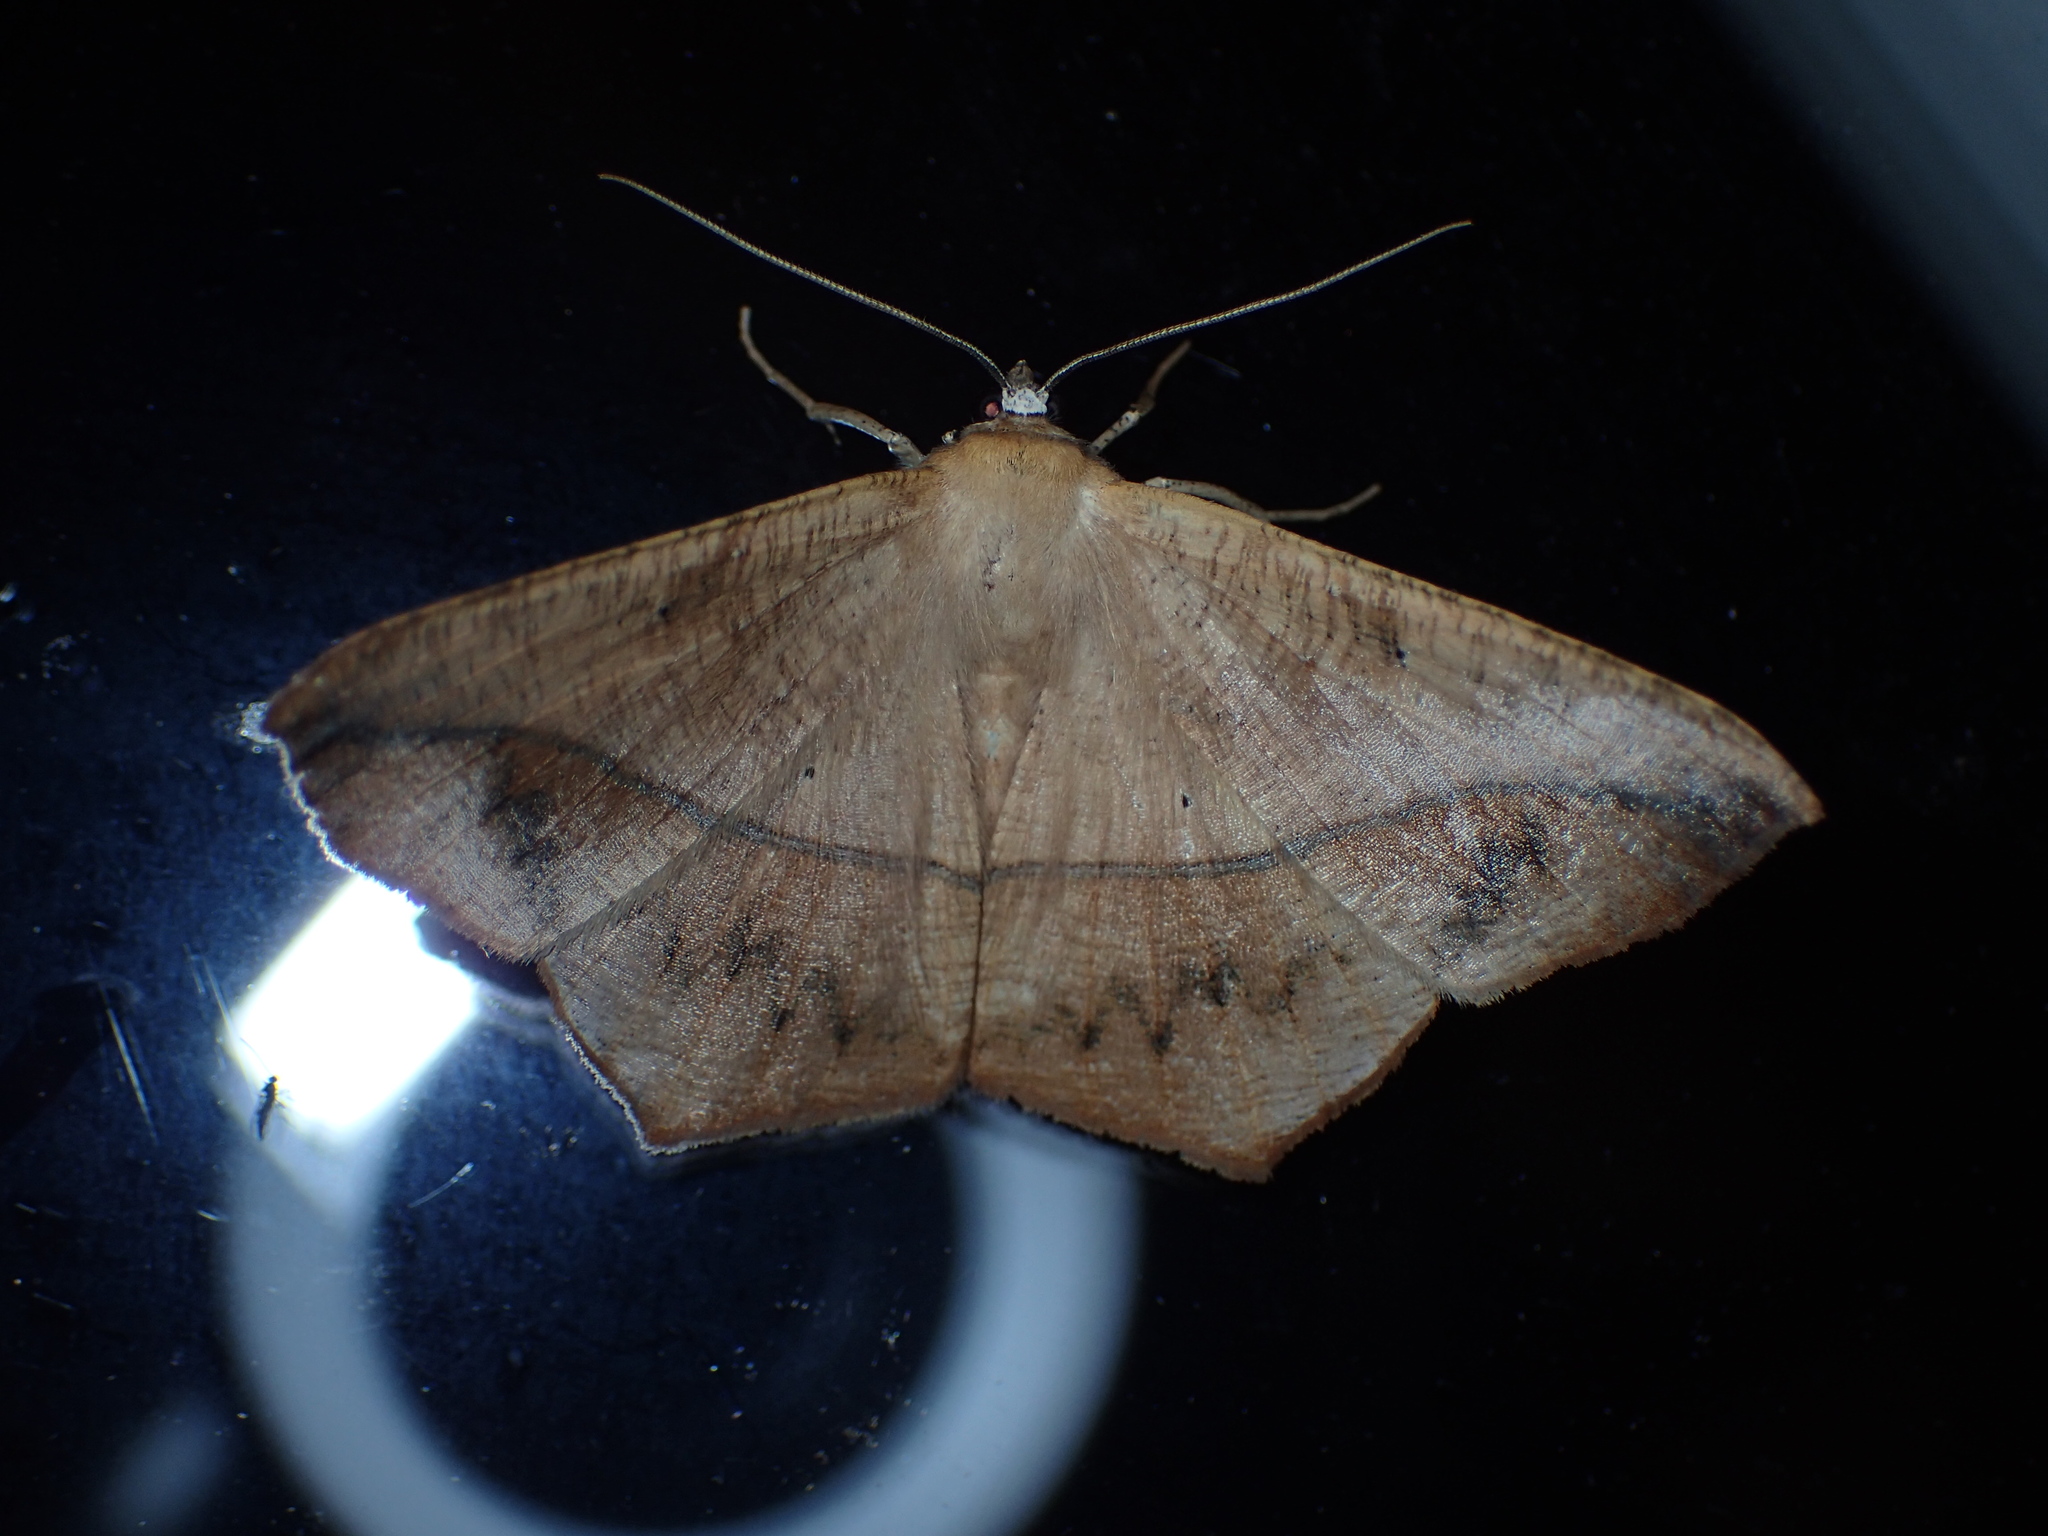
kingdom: Animalia
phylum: Arthropoda
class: Insecta
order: Lepidoptera
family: Geometridae
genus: Prochoerodes
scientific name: Prochoerodes lineola
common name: Large maple spanworm
